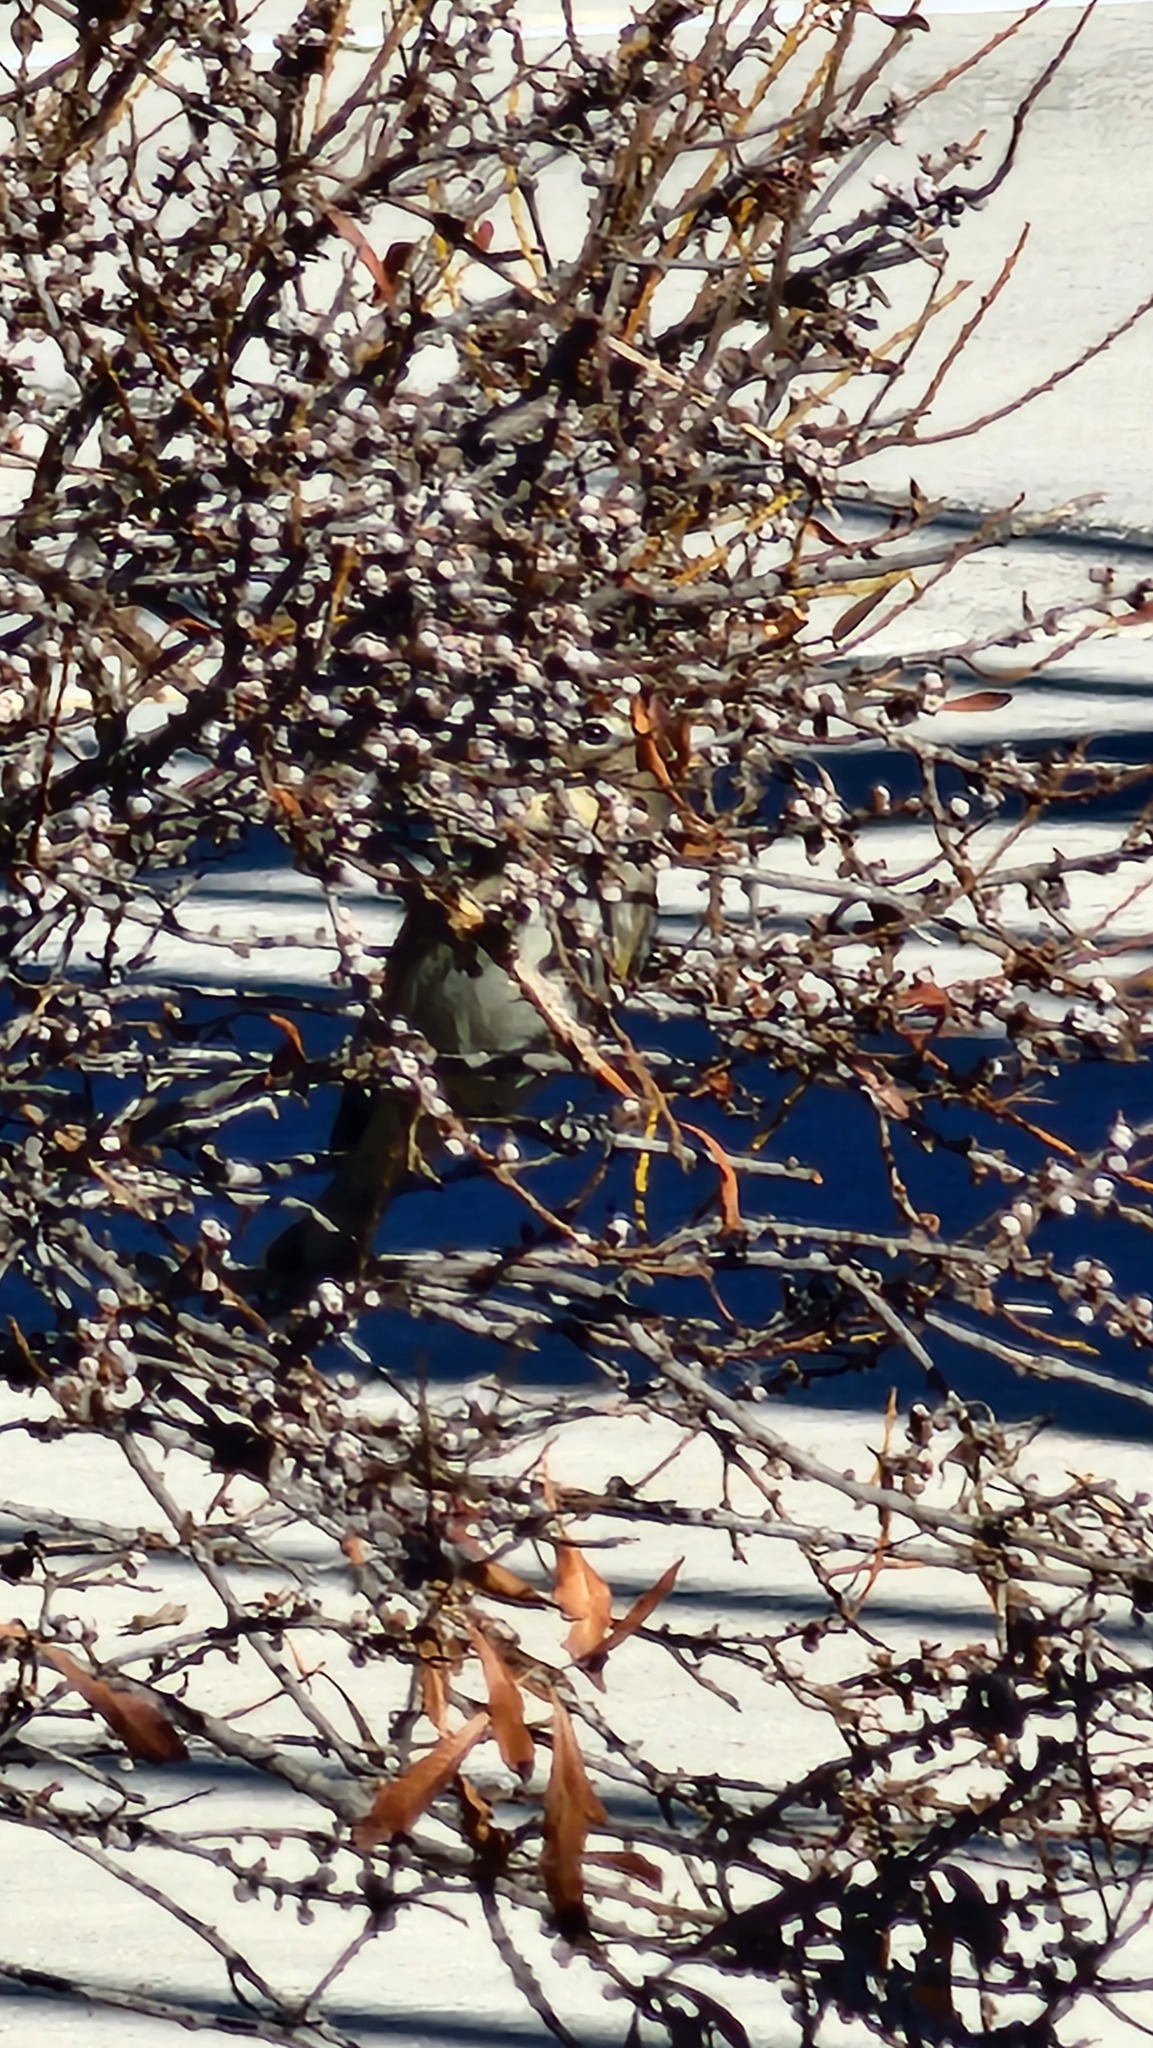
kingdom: Animalia
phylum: Chordata
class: Aves
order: Passeriformes
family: Parulidae
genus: Setophaga
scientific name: Setophaga coronata
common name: Myrtle warbler
